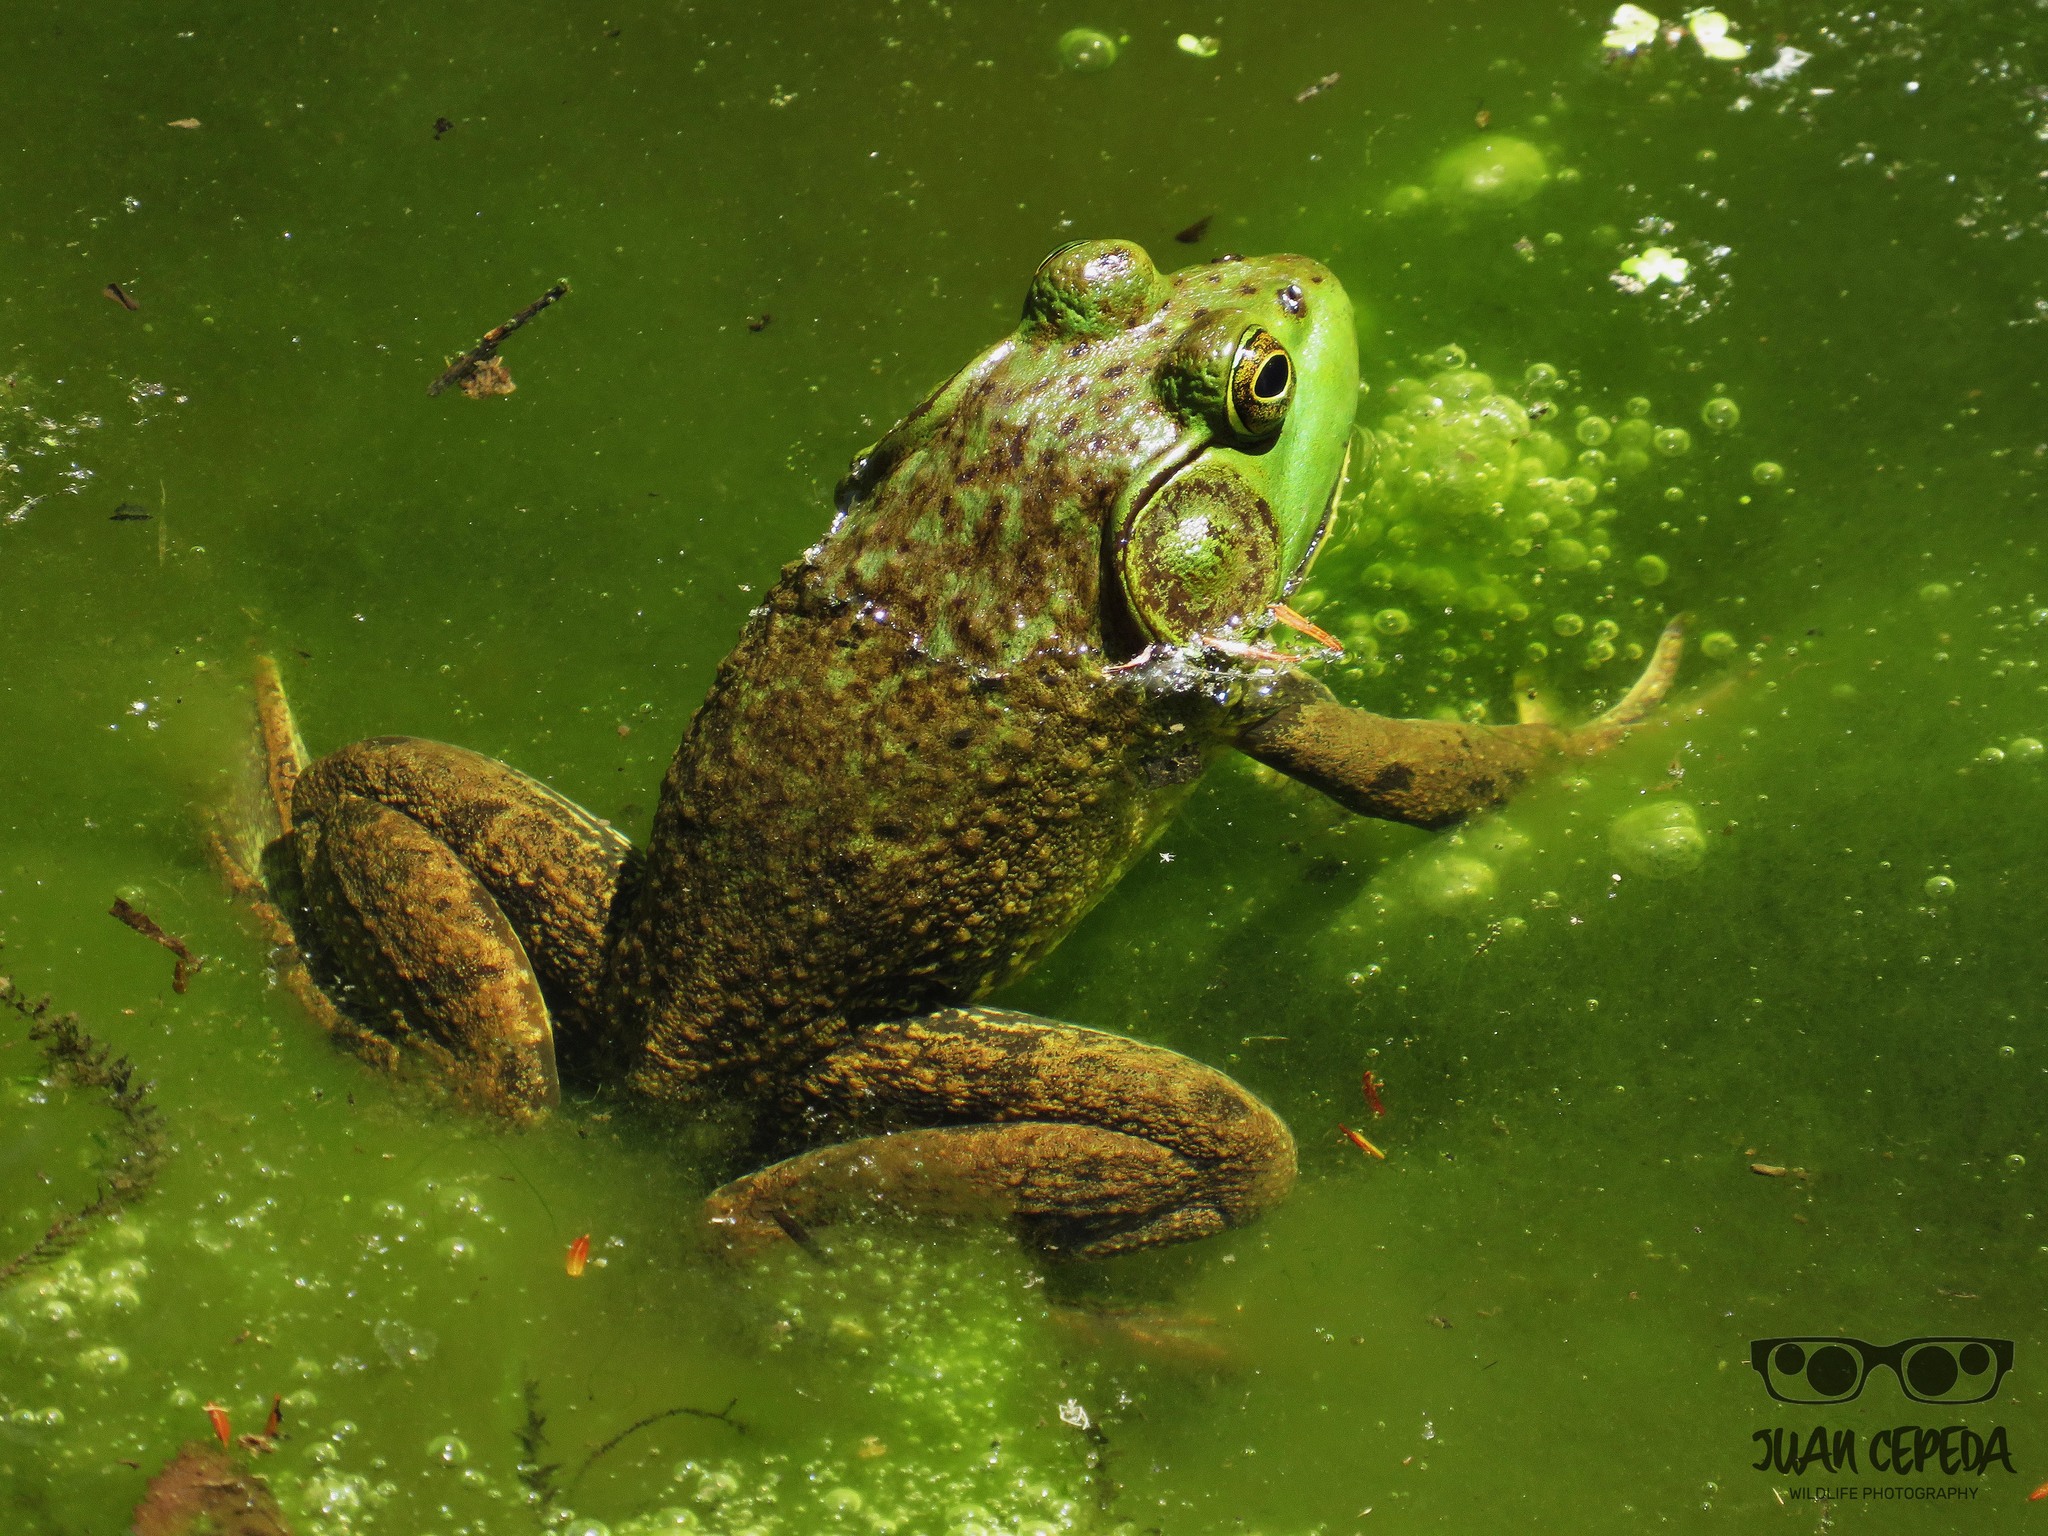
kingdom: Animalia
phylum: Chordata
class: Amphibia
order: Anura
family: Ranidae
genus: Lithobates
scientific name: Lithobates catesbeianus
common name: American bullfrog
